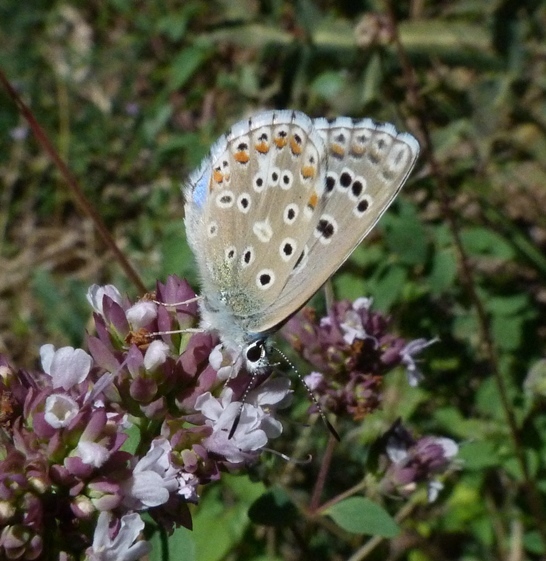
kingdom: Animalia
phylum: Arthropoda
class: Insecta
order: Lepidoptera
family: Lycaenidae
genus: Lysandra
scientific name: Lysandra bellargus
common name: Adonis blue
